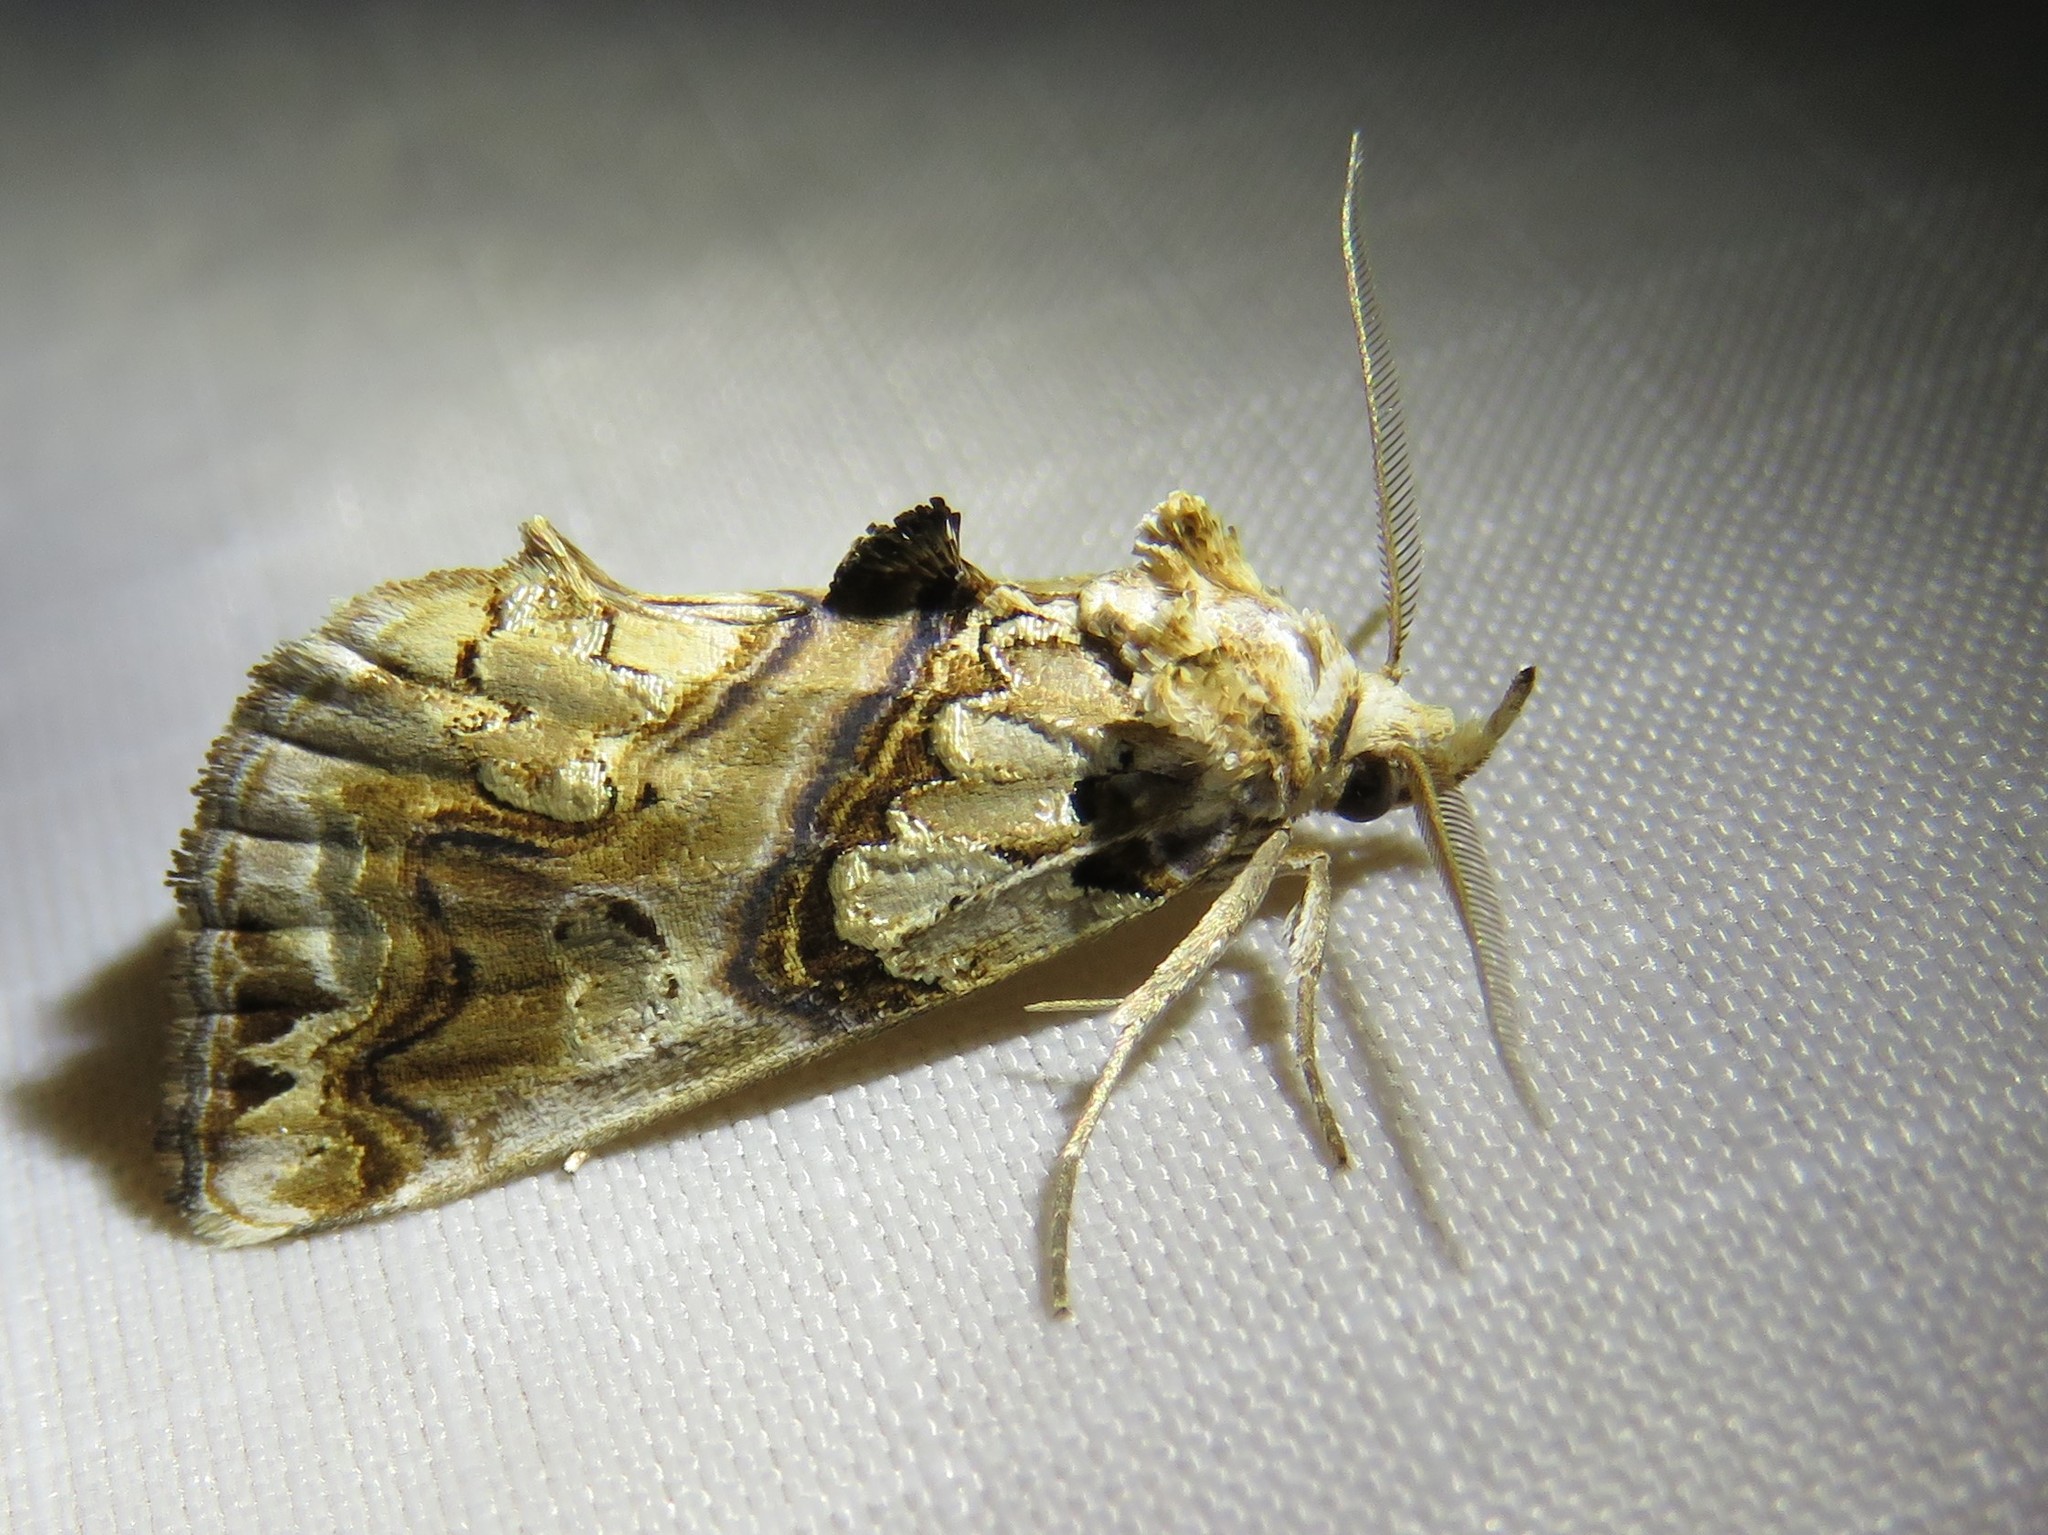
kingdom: Animalia
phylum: Arthropoda
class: Insecta
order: Lepidoptera
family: Erebidae
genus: Plusiodonta
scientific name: Plusiodonta compressipalpis
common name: Moonseed moth
